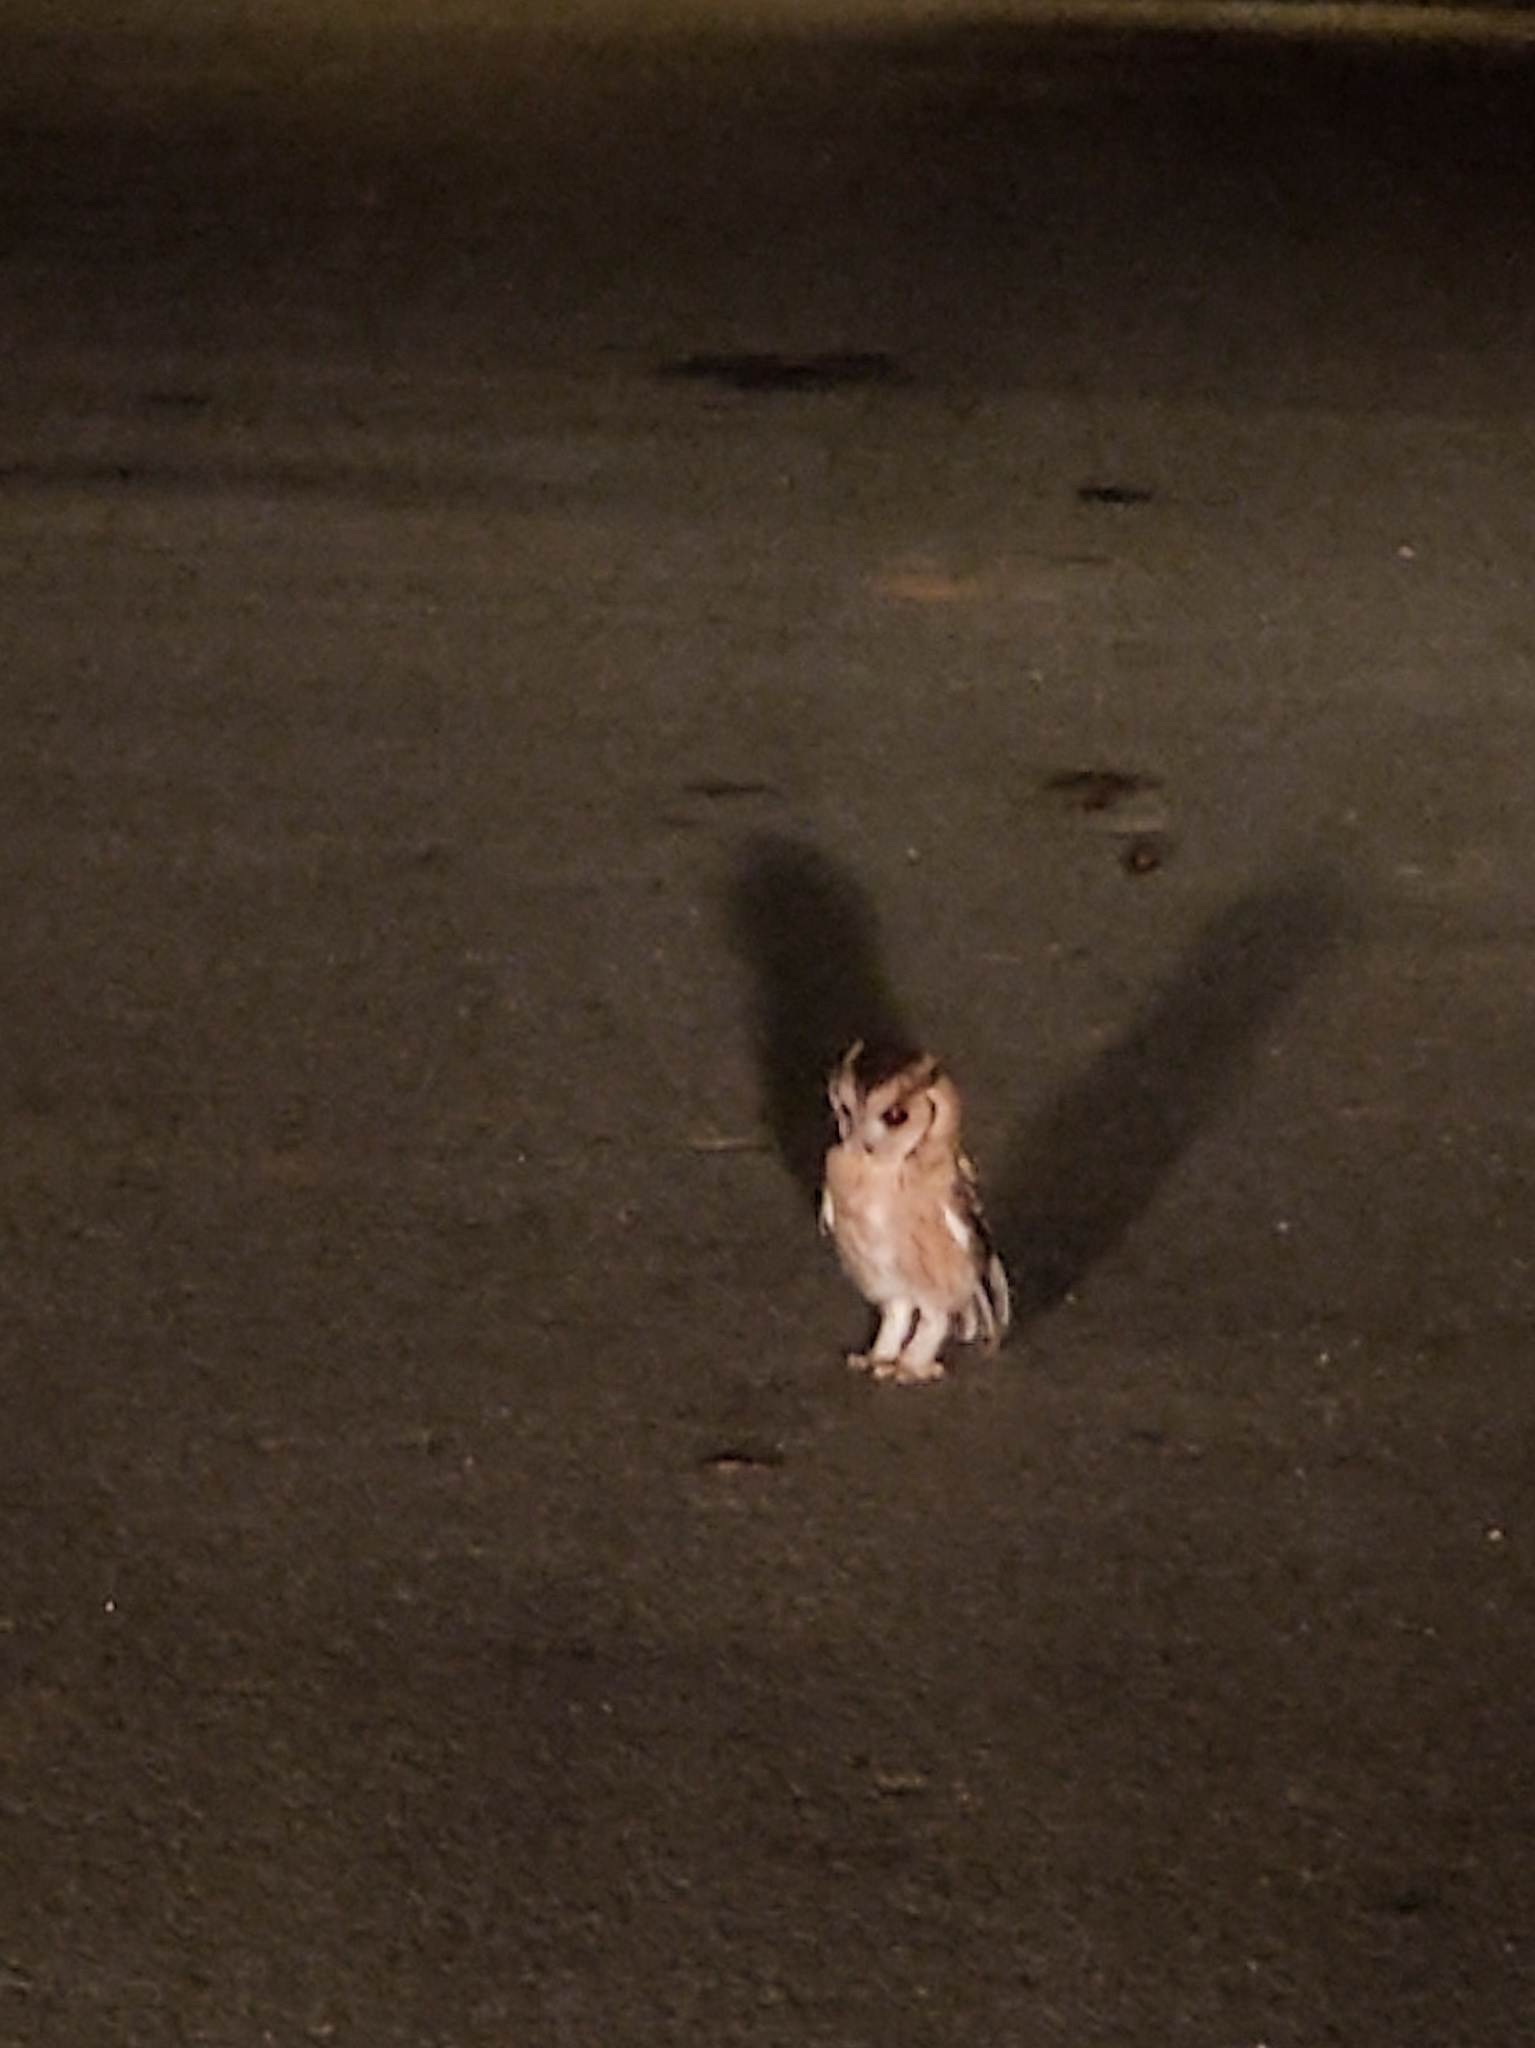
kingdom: Animalia
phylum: Chordata
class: Aves
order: Strigiformes
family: Strigidae
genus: Otus
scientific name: Otus bakkamoena
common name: Indian scops owl
